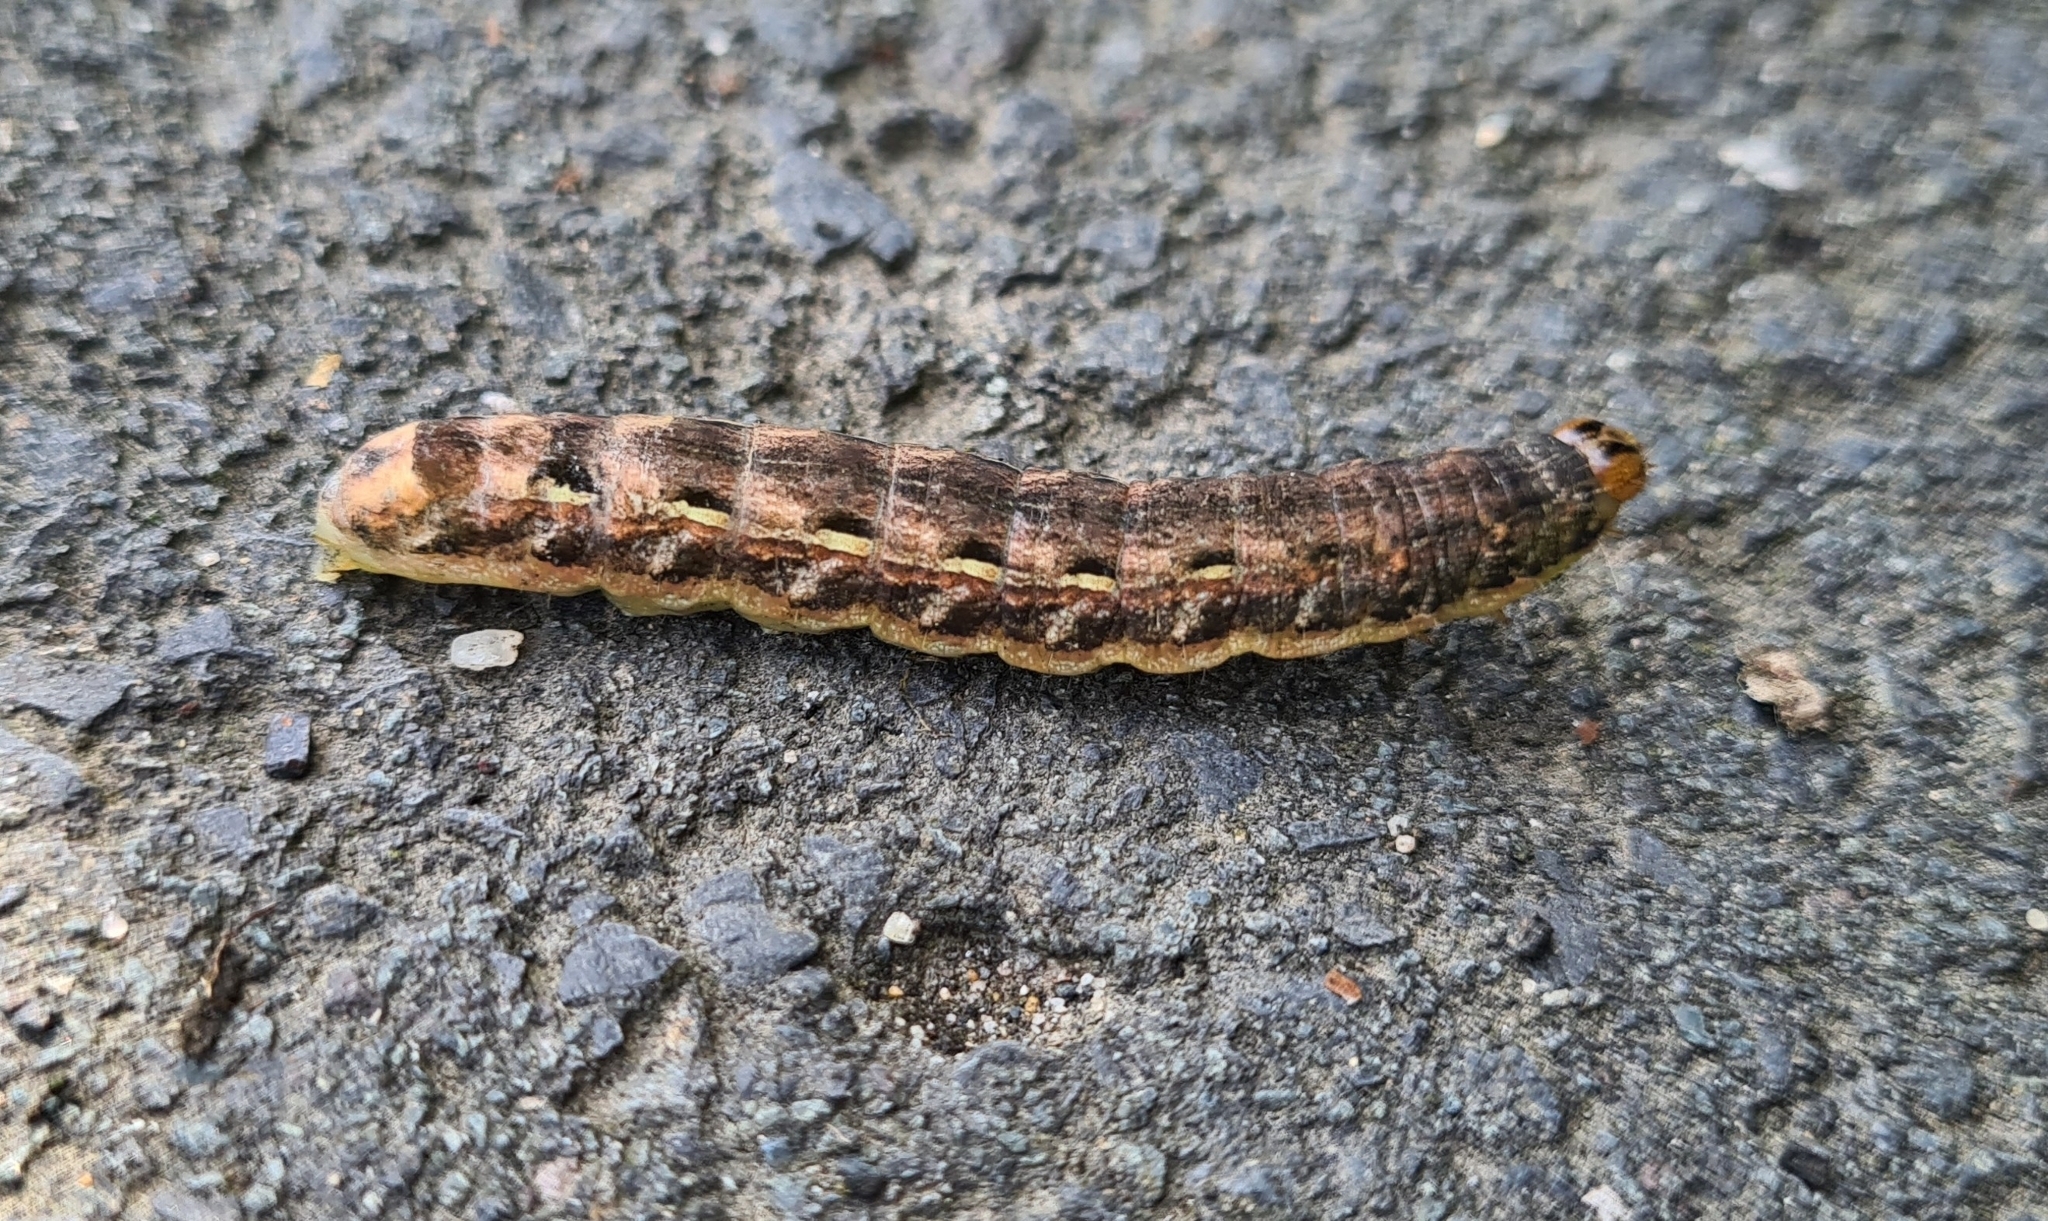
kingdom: Animalia
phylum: Arthropoda
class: Insecta
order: Lepidoptera
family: Noctuidae
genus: Noctua
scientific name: Noctua pronuba
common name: Large yellow underwing
